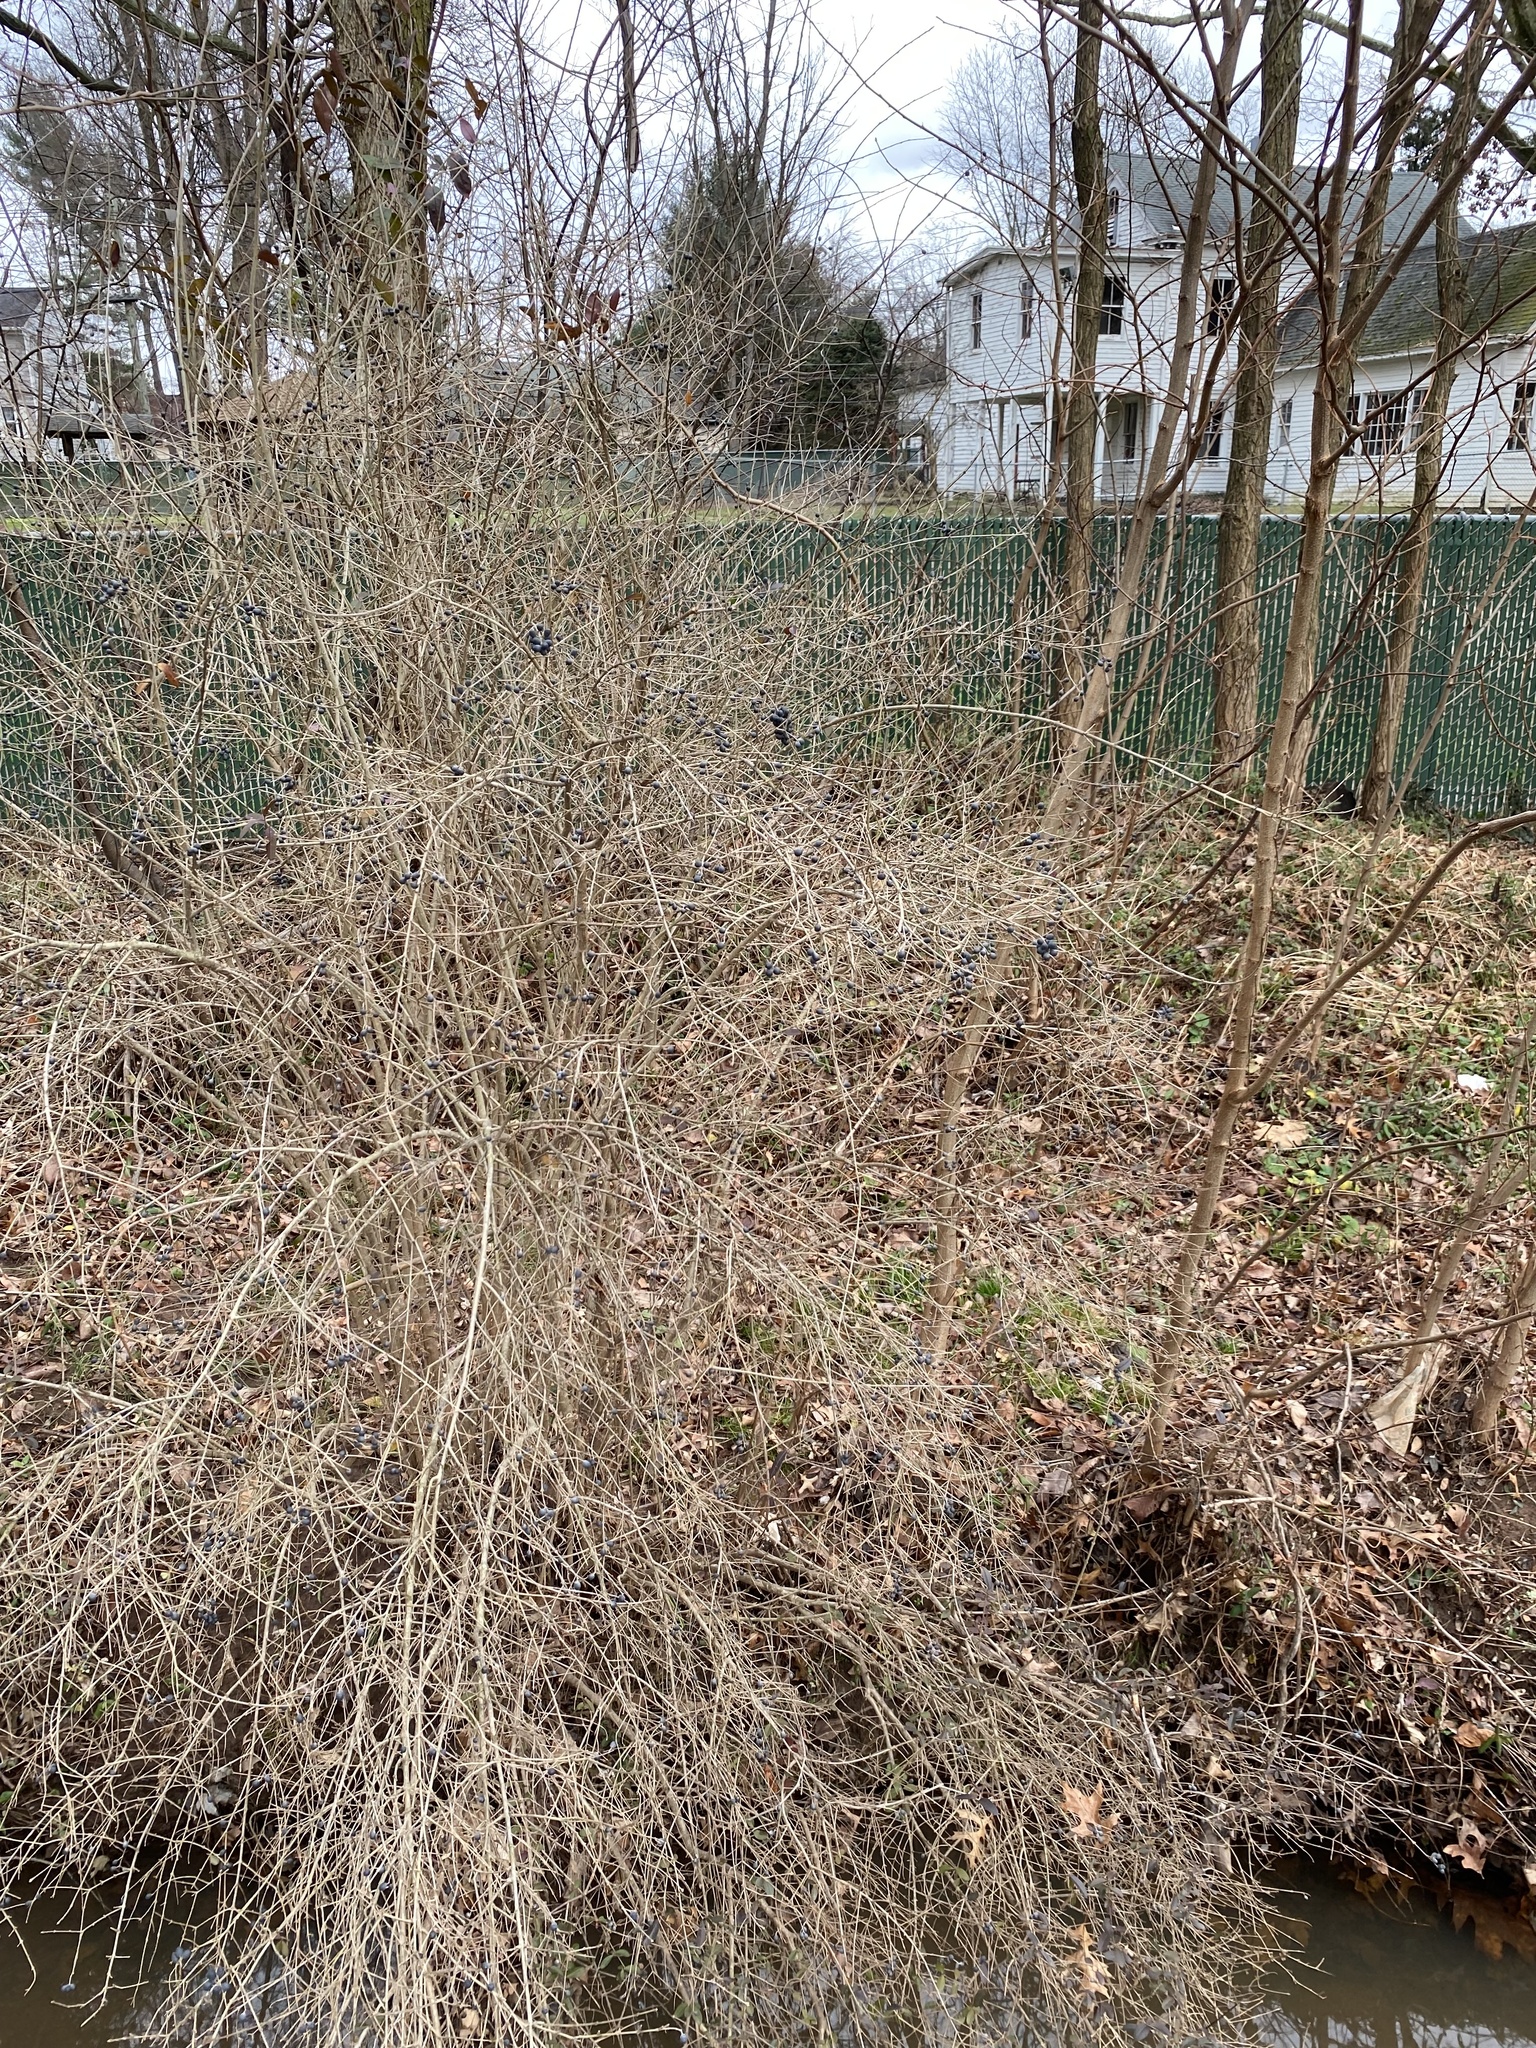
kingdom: Plantae
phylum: Tracheophyta
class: Magnoliopsida
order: Lamiales
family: Oleaceae
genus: Ligustrum
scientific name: Ligustrum obtusifolium
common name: Border privet
